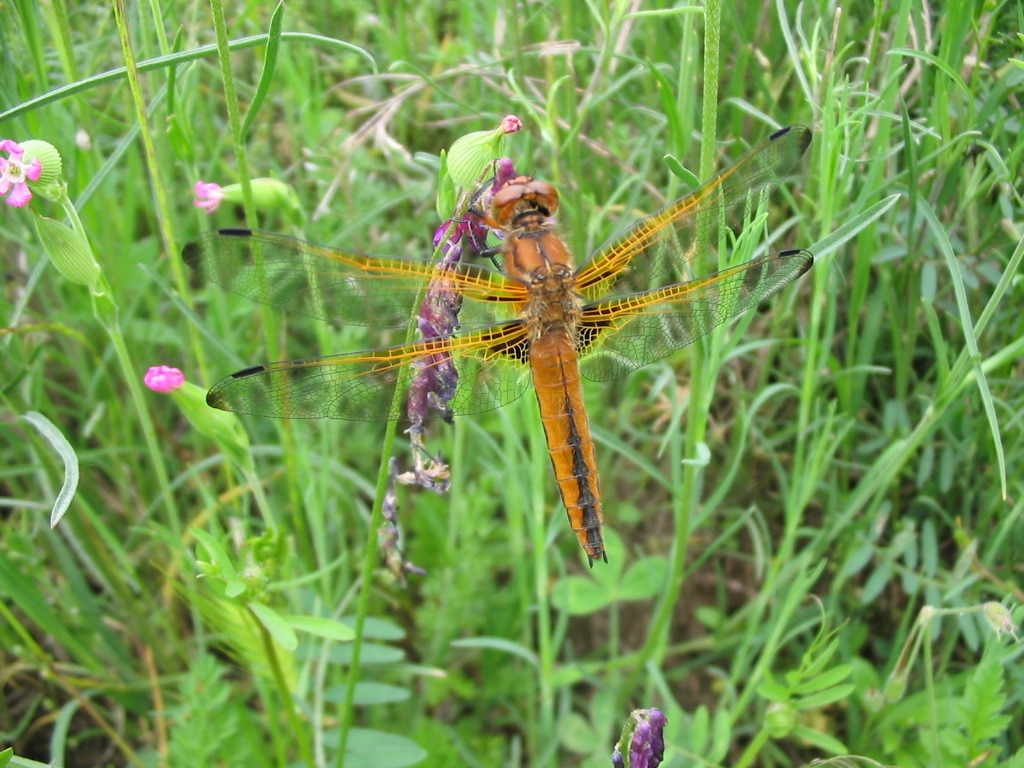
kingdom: Animalia
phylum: Arthropoda
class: Insecta
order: Odonata
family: Libellulidae
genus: Libellula
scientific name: Libellula fulva
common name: Blue chaser
